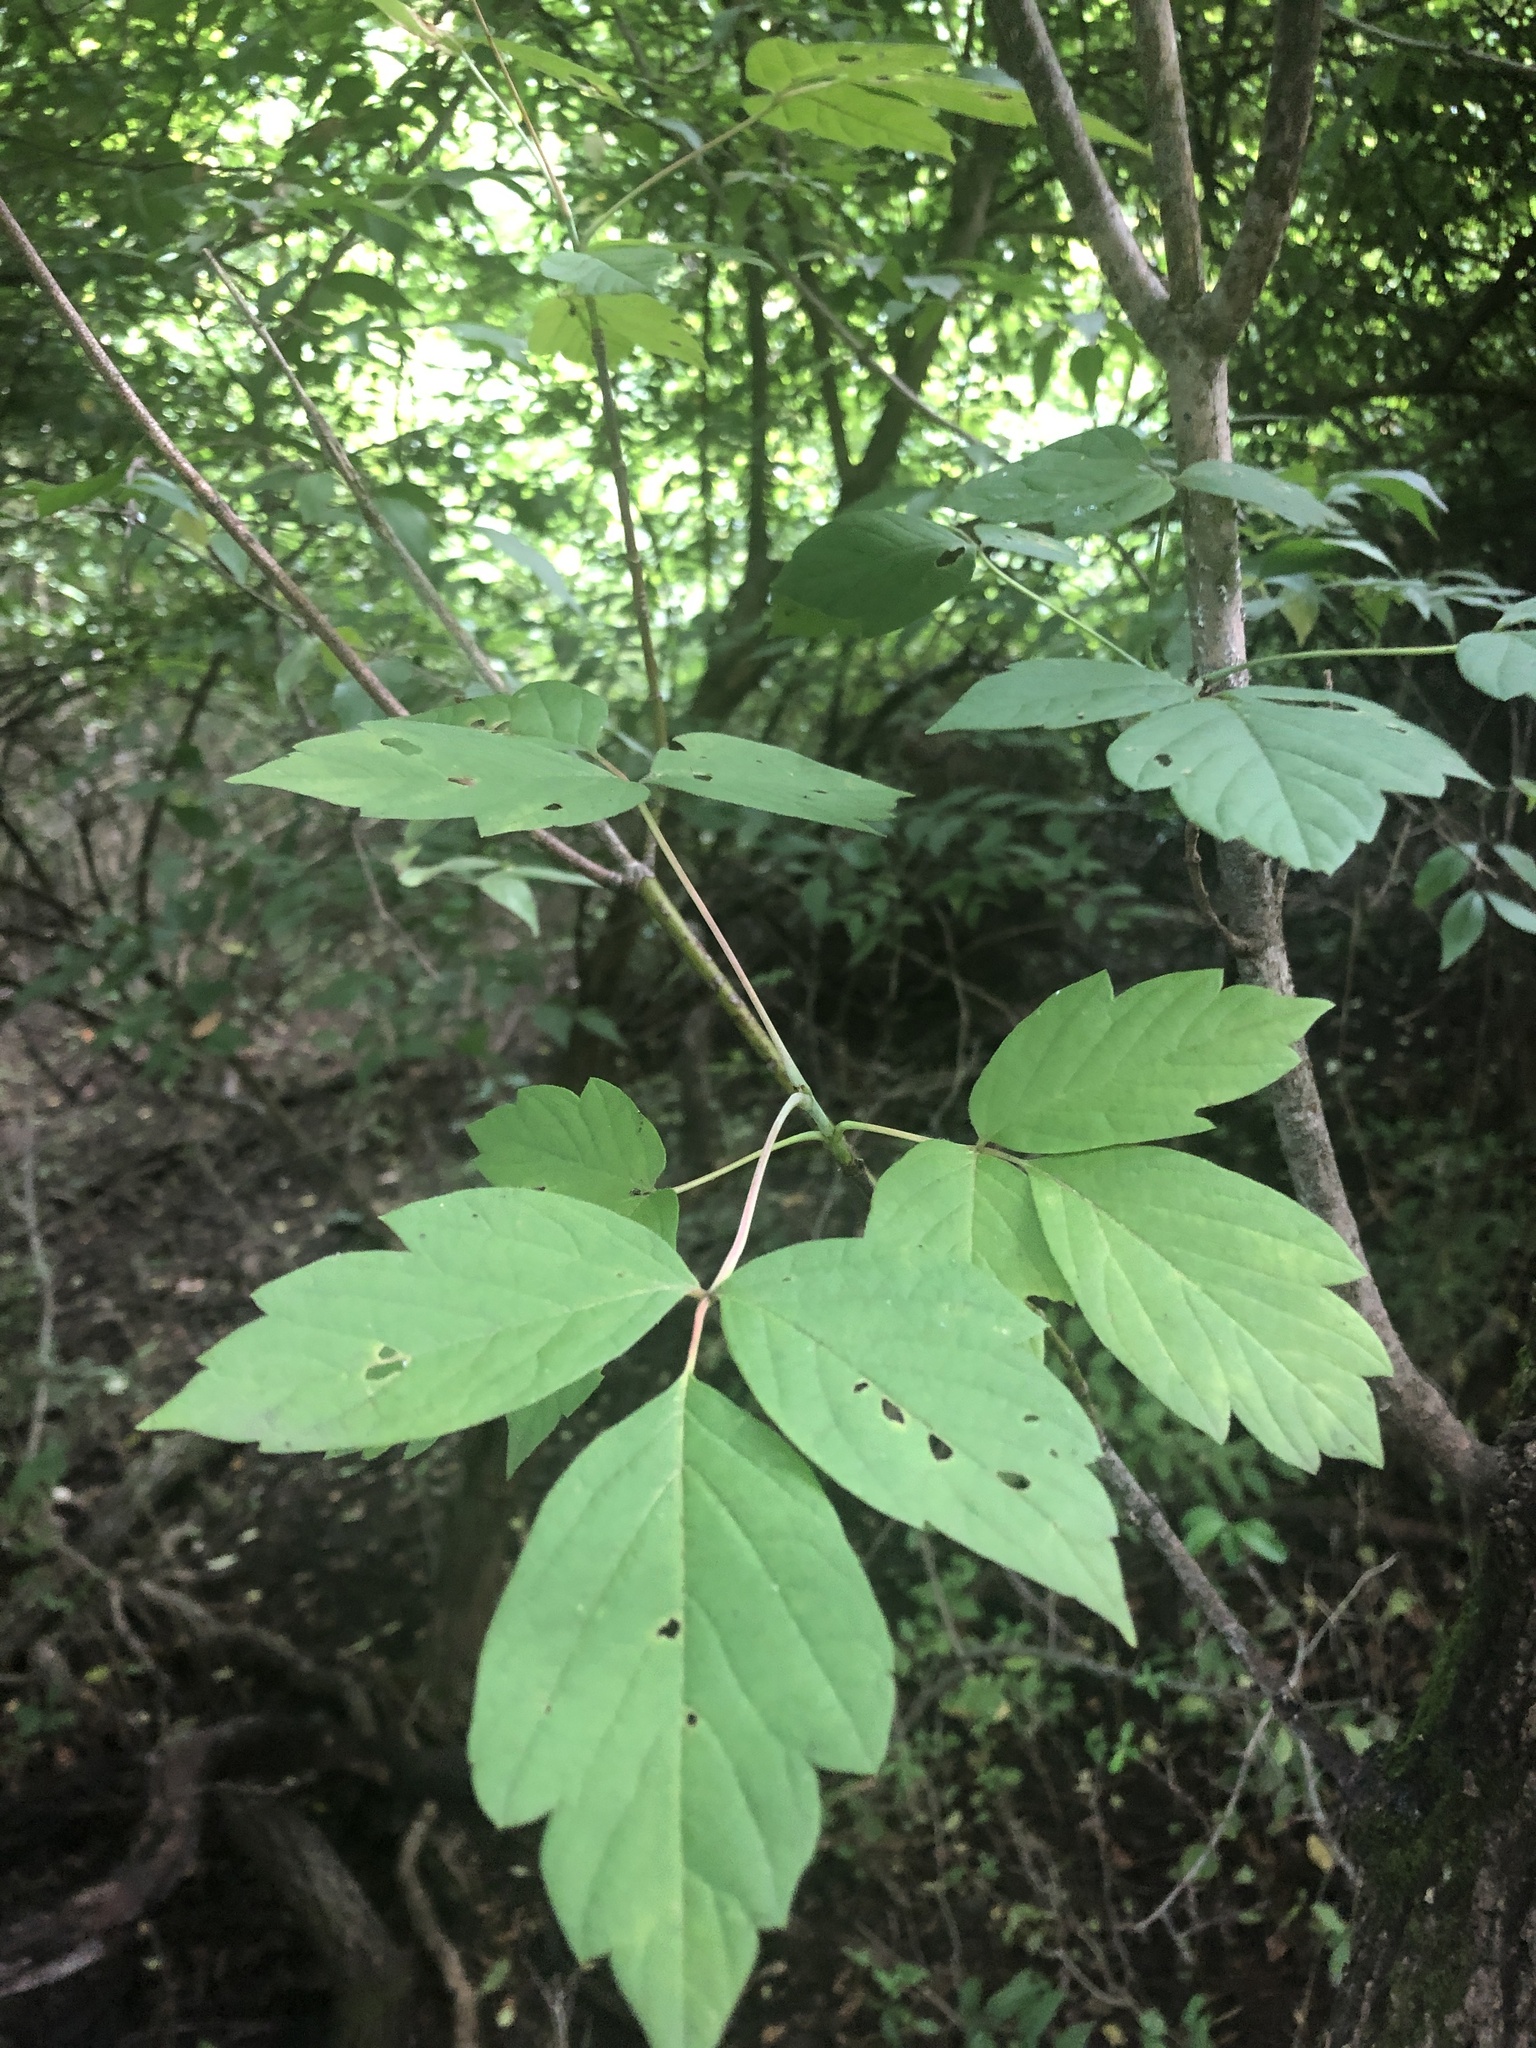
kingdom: Plantae
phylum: Tracheophyta
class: Magnoliopsida
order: Sapindales
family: Sapindaceae
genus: Acer
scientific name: Acer negundo
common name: Ashleaf maple
